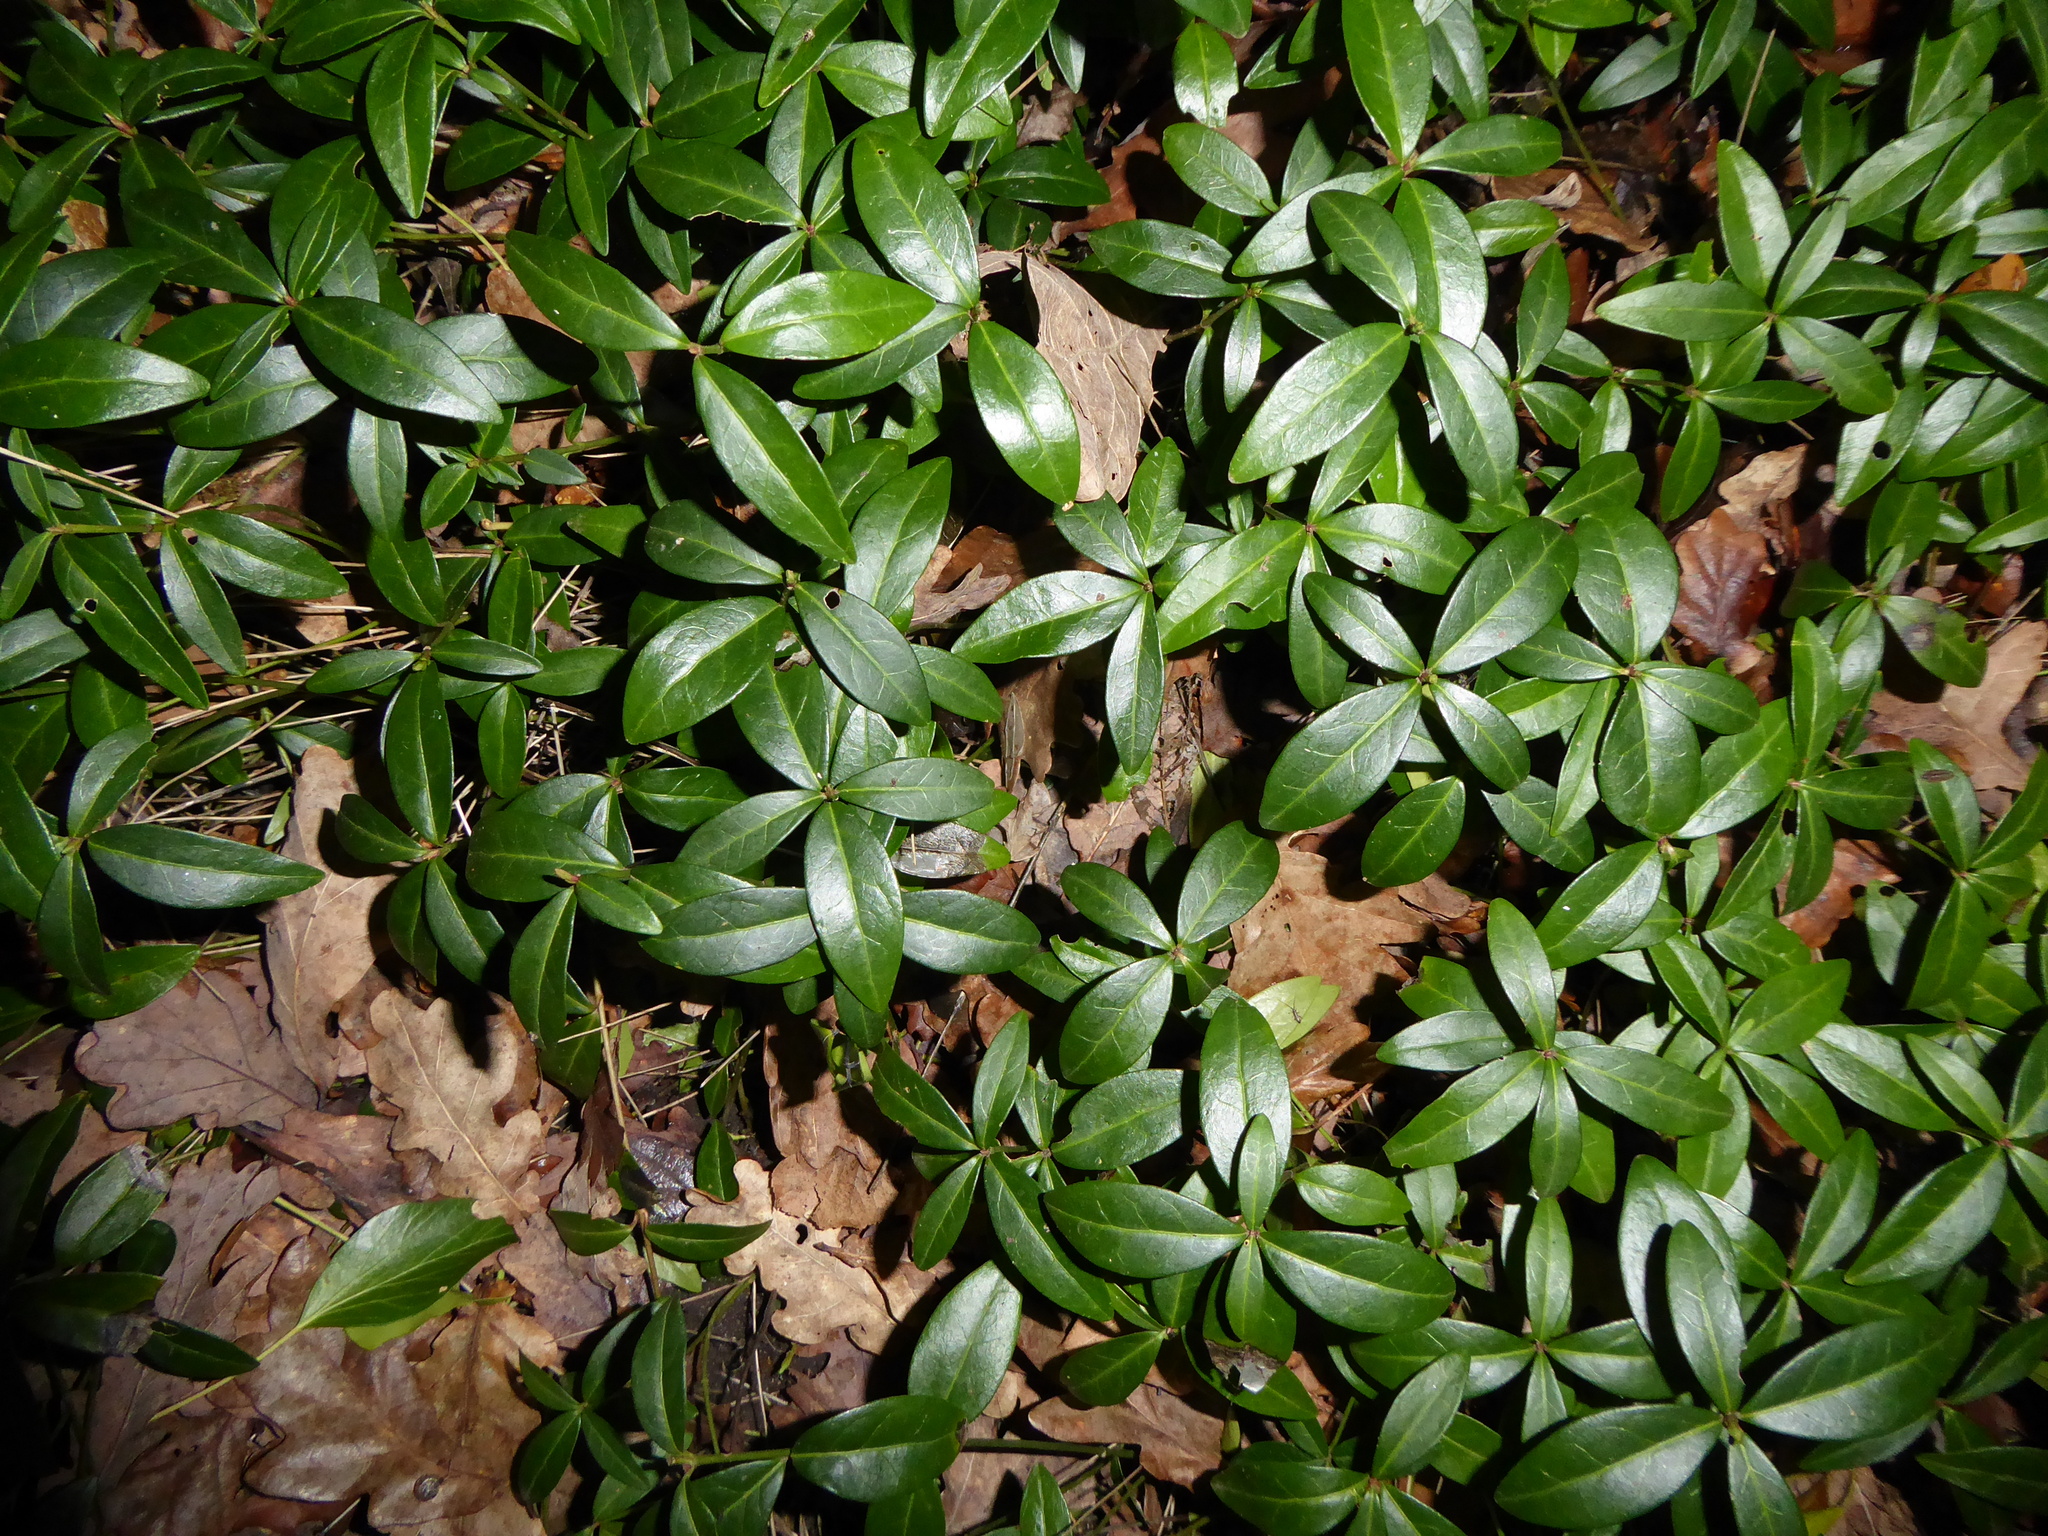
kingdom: Plantae
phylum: Tracheophyta
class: Magnoliopsida
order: Gentianales
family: Apocynaceae
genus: Vinca
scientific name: Vinca minor
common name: Lesser periwinkle
